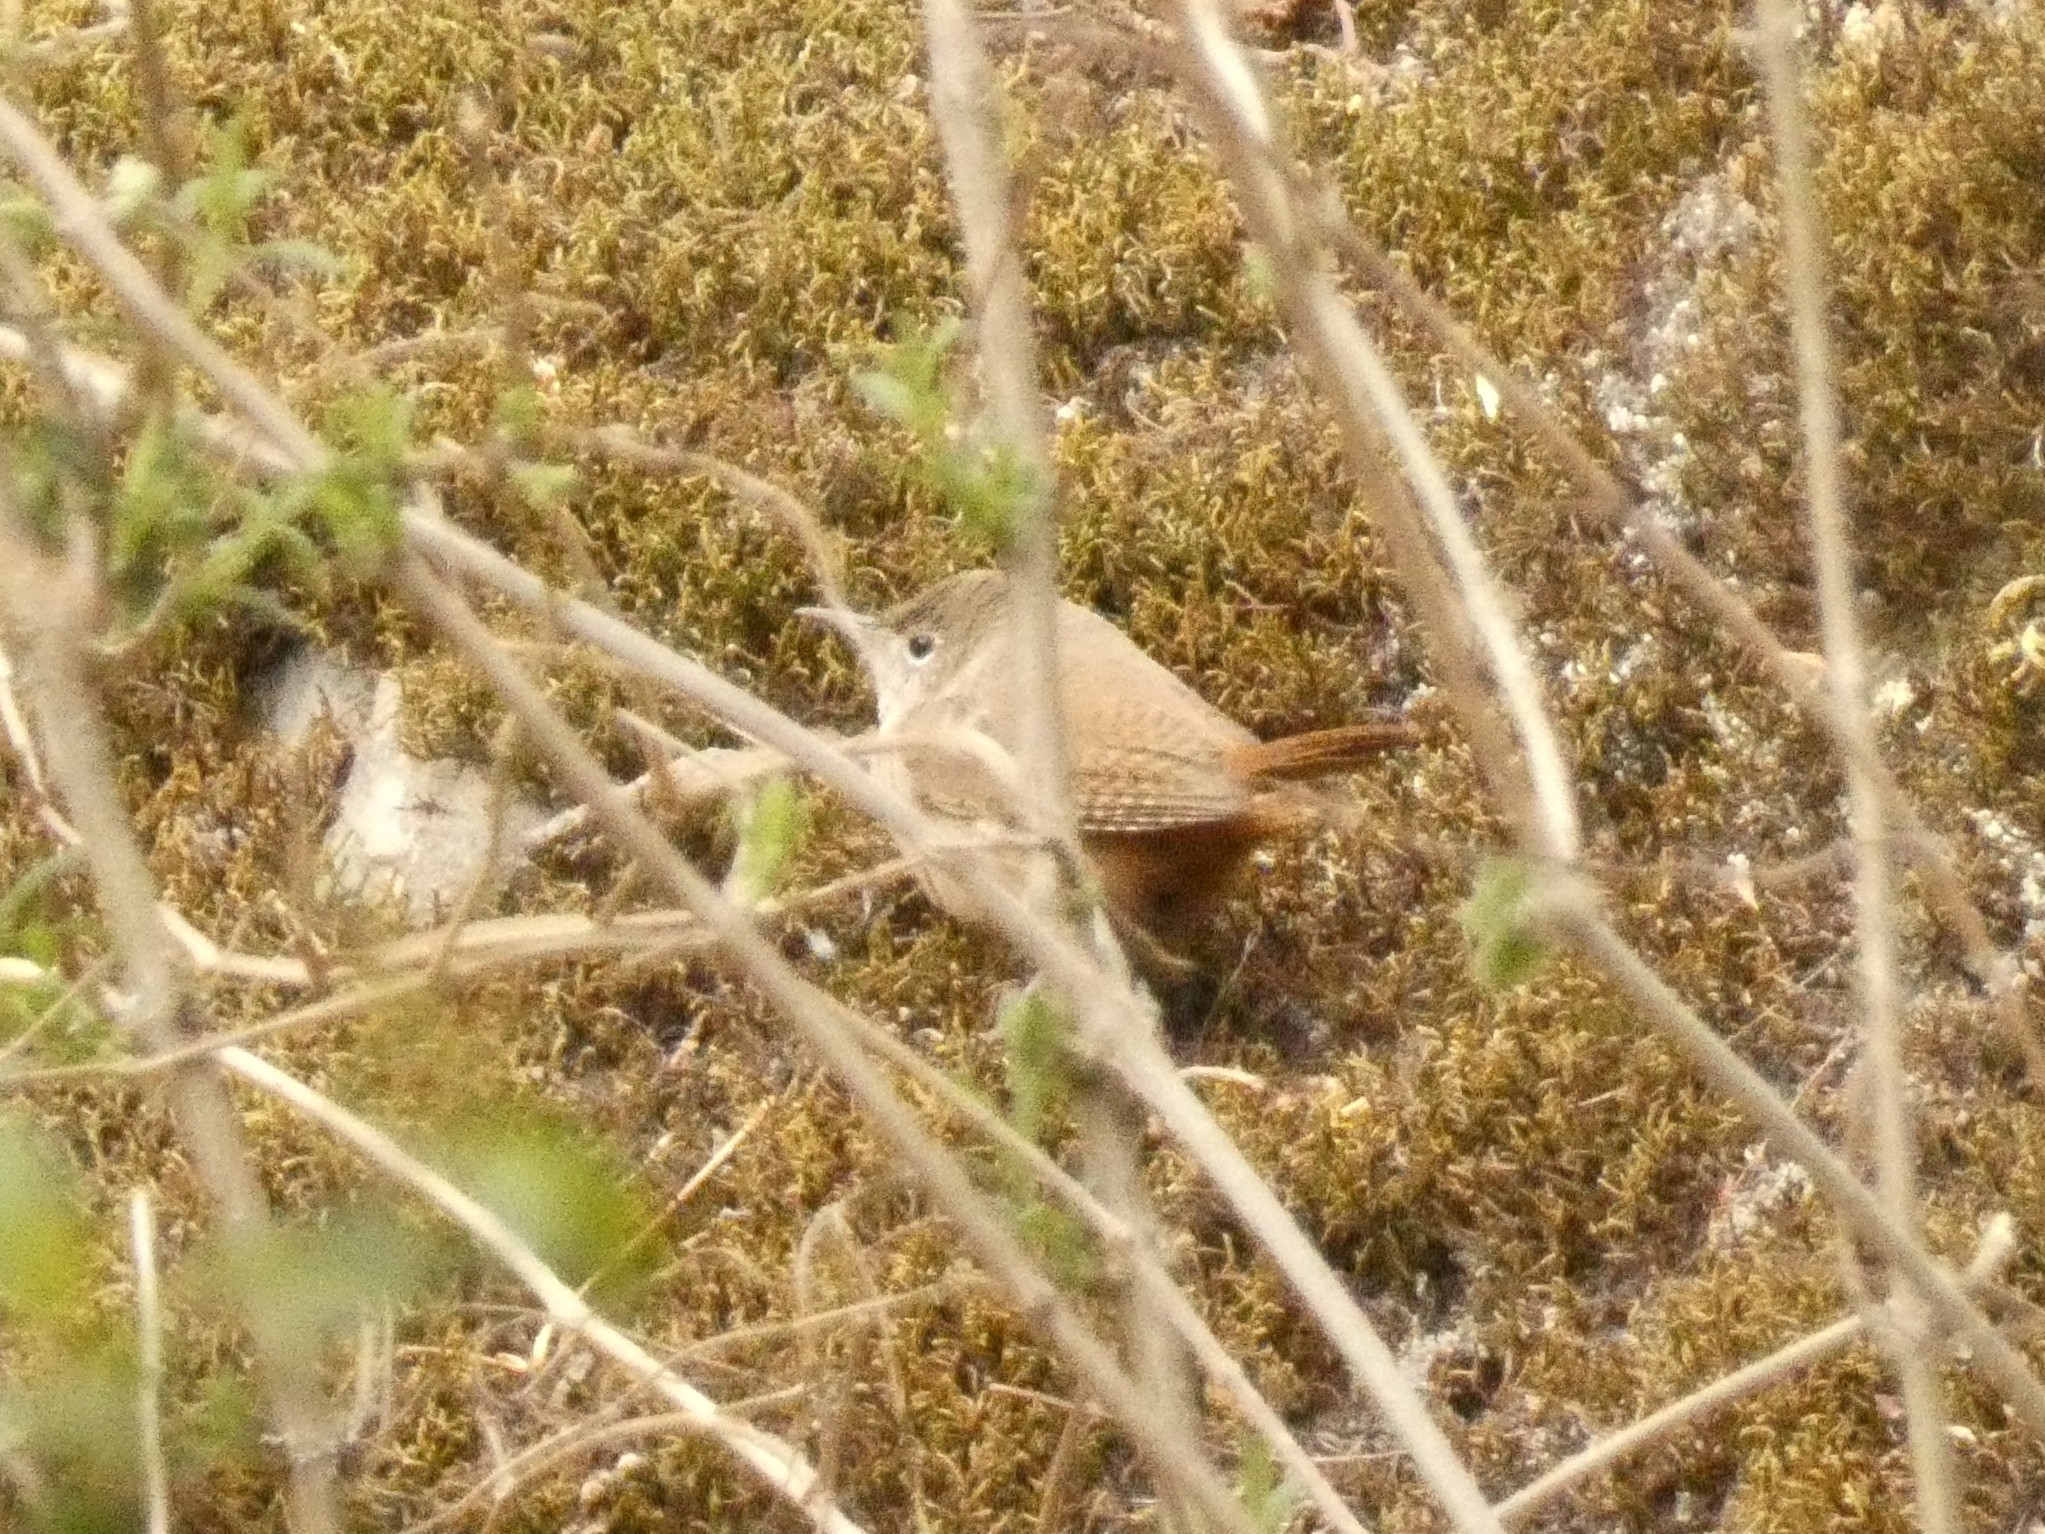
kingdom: Animalia
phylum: Chordata
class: Aves
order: Passeriformes
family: Troglodytidae
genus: Troglodytes
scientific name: Troglodytes aedon
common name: House wren
